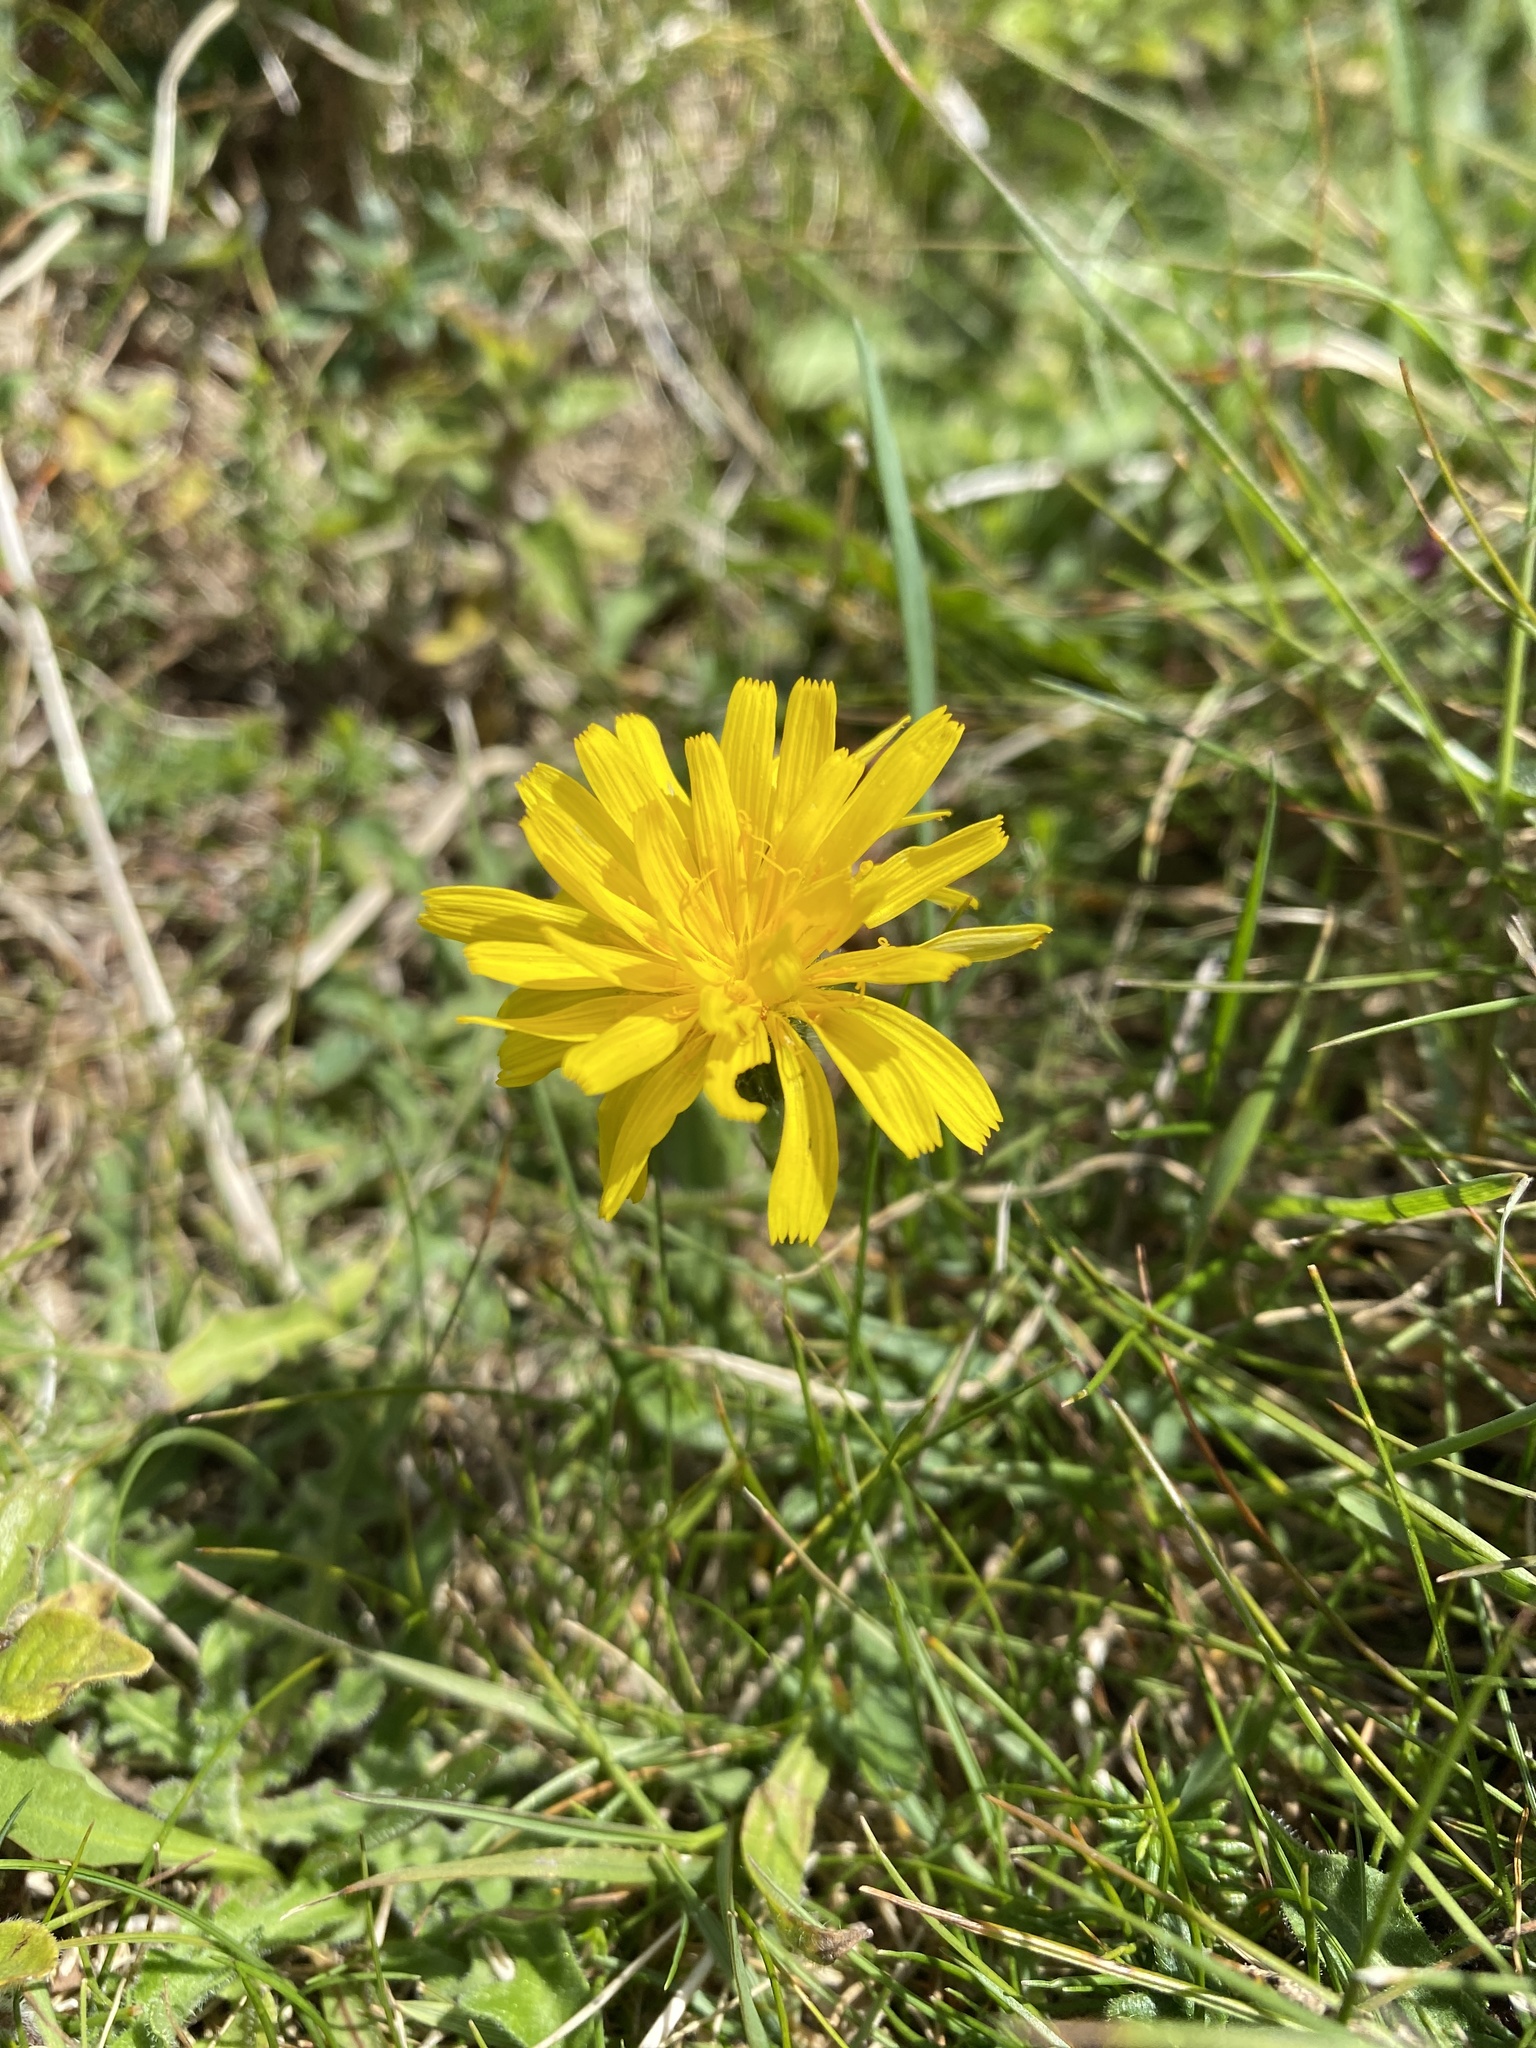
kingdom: Plantae
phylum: Tracheophyta
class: Magnoliopsida
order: Asterales
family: Asteraceae
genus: Leontodon
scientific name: Leontodon hispidus
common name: Rough hawkbit
